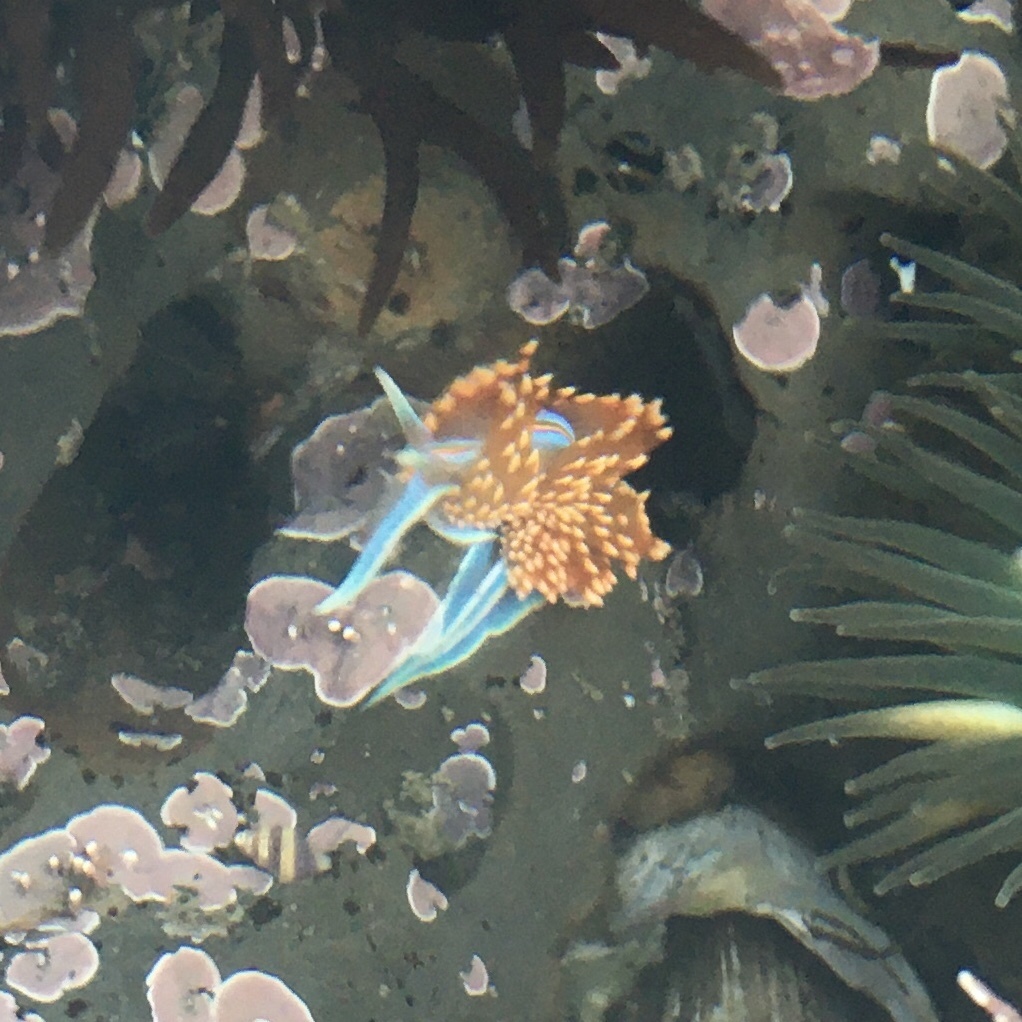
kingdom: Animalia
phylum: Mollusca
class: Gastropoda
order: Nudibranchia
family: Myrrhinidae
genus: Hermissenda
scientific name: Hermissenda opalescens
